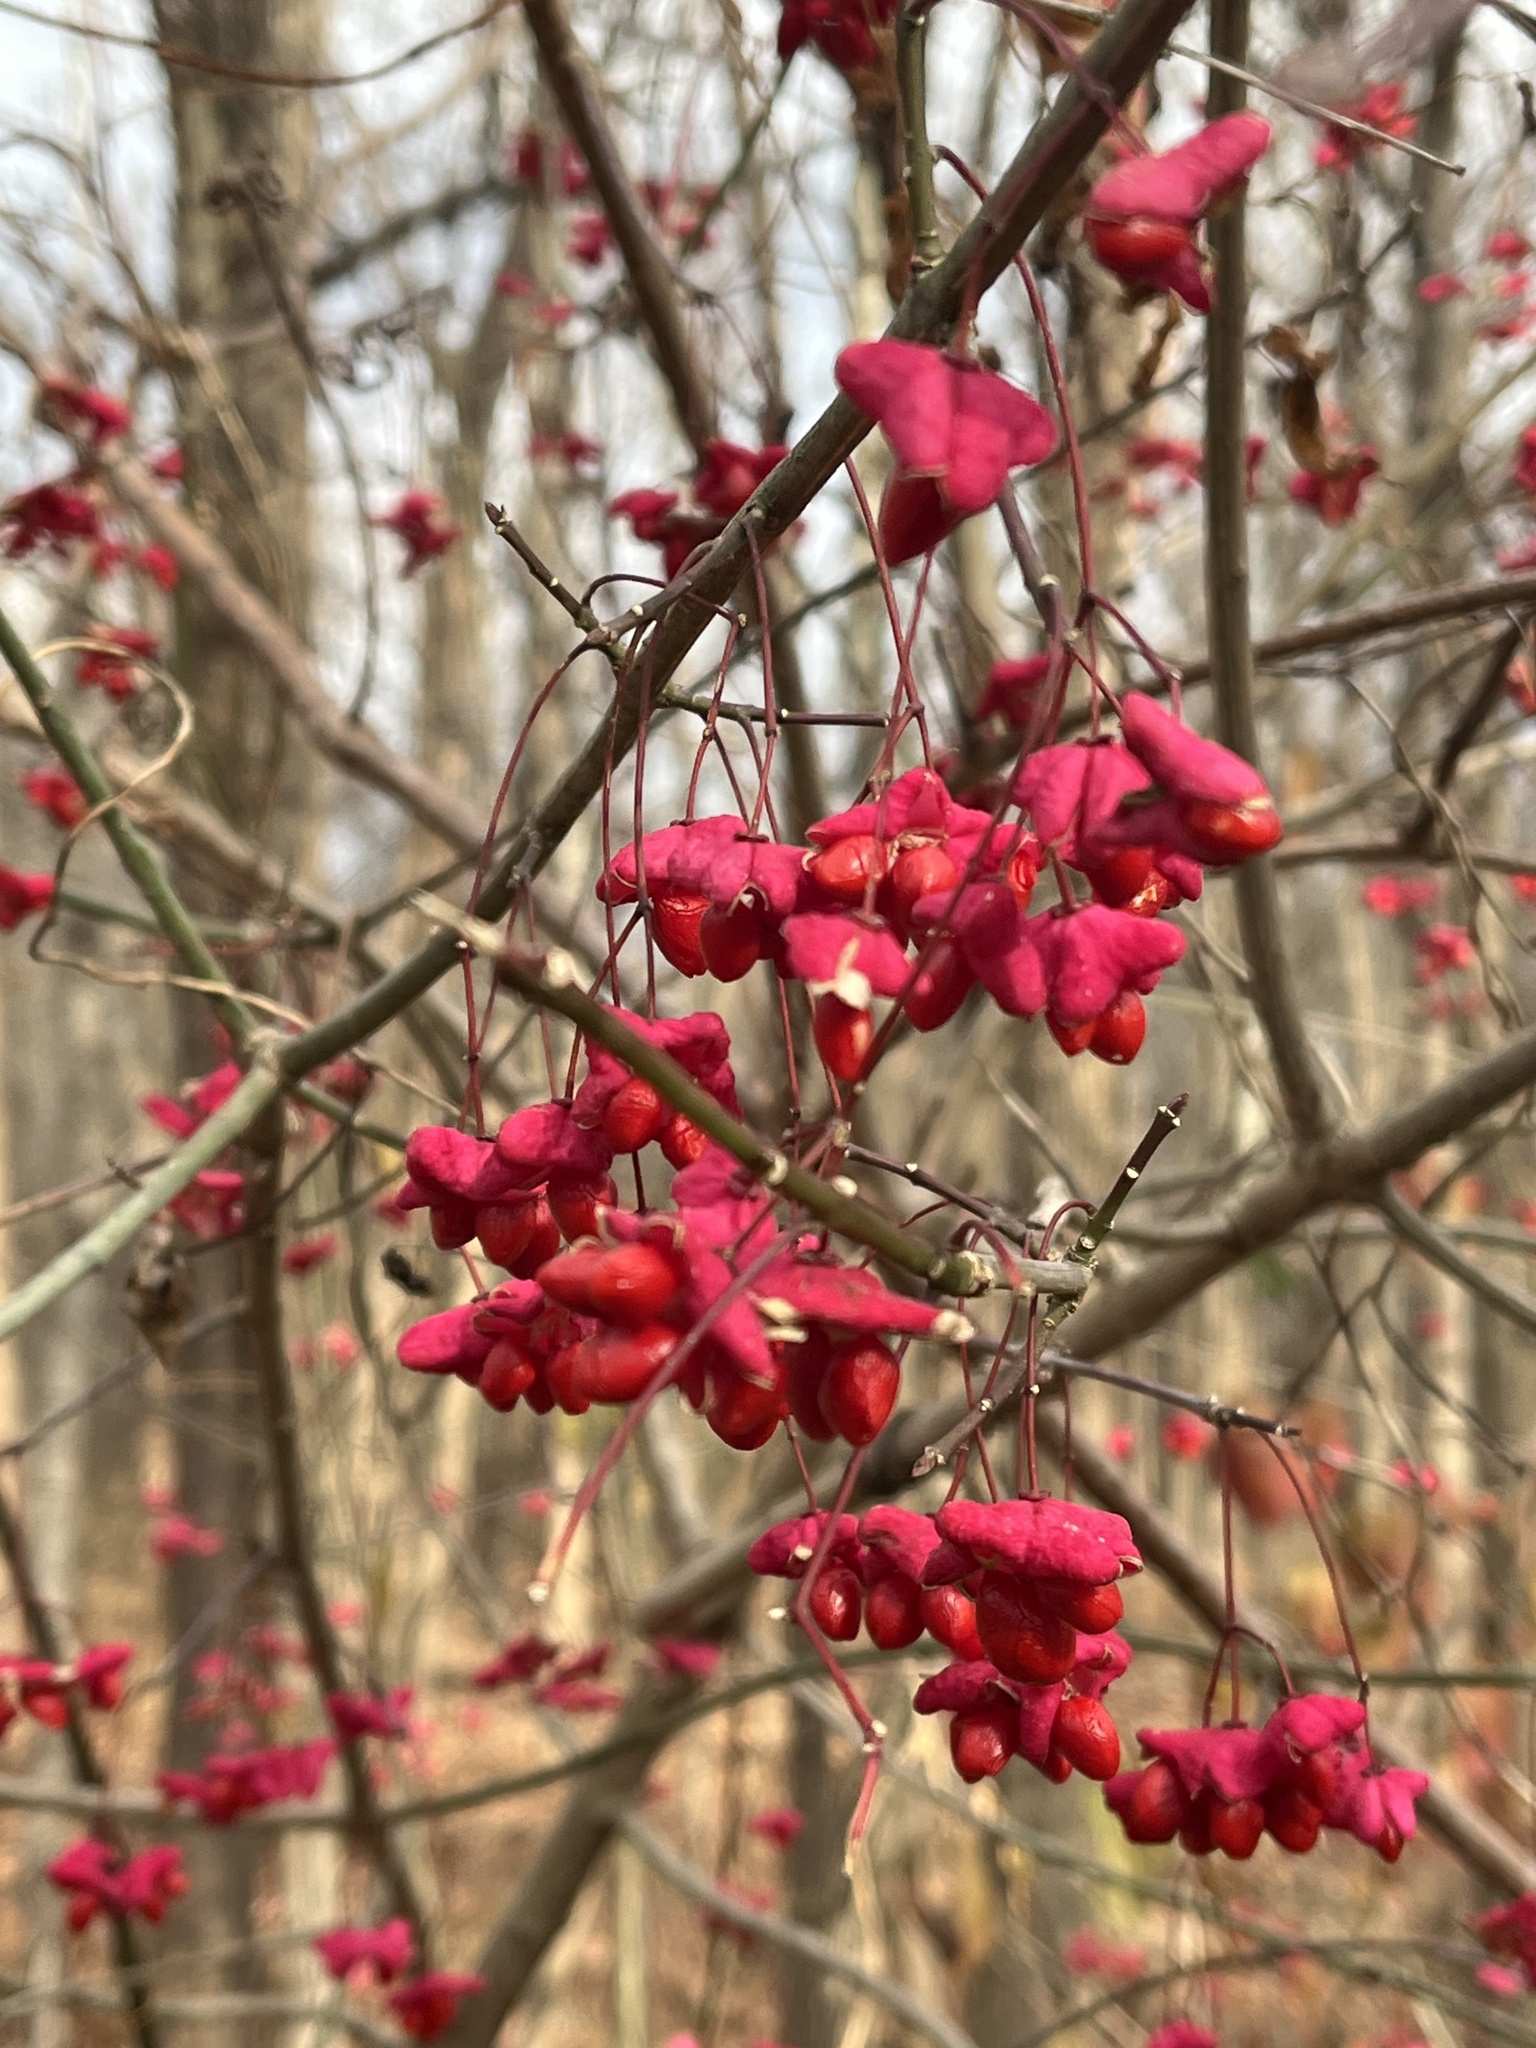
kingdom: Plantae
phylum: Tracheophyta
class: Magnoliopsida
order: Celastrales
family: Celastraceae
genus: Euonymus
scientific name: Euonymus atropurpureus
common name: Eastern wahoo
